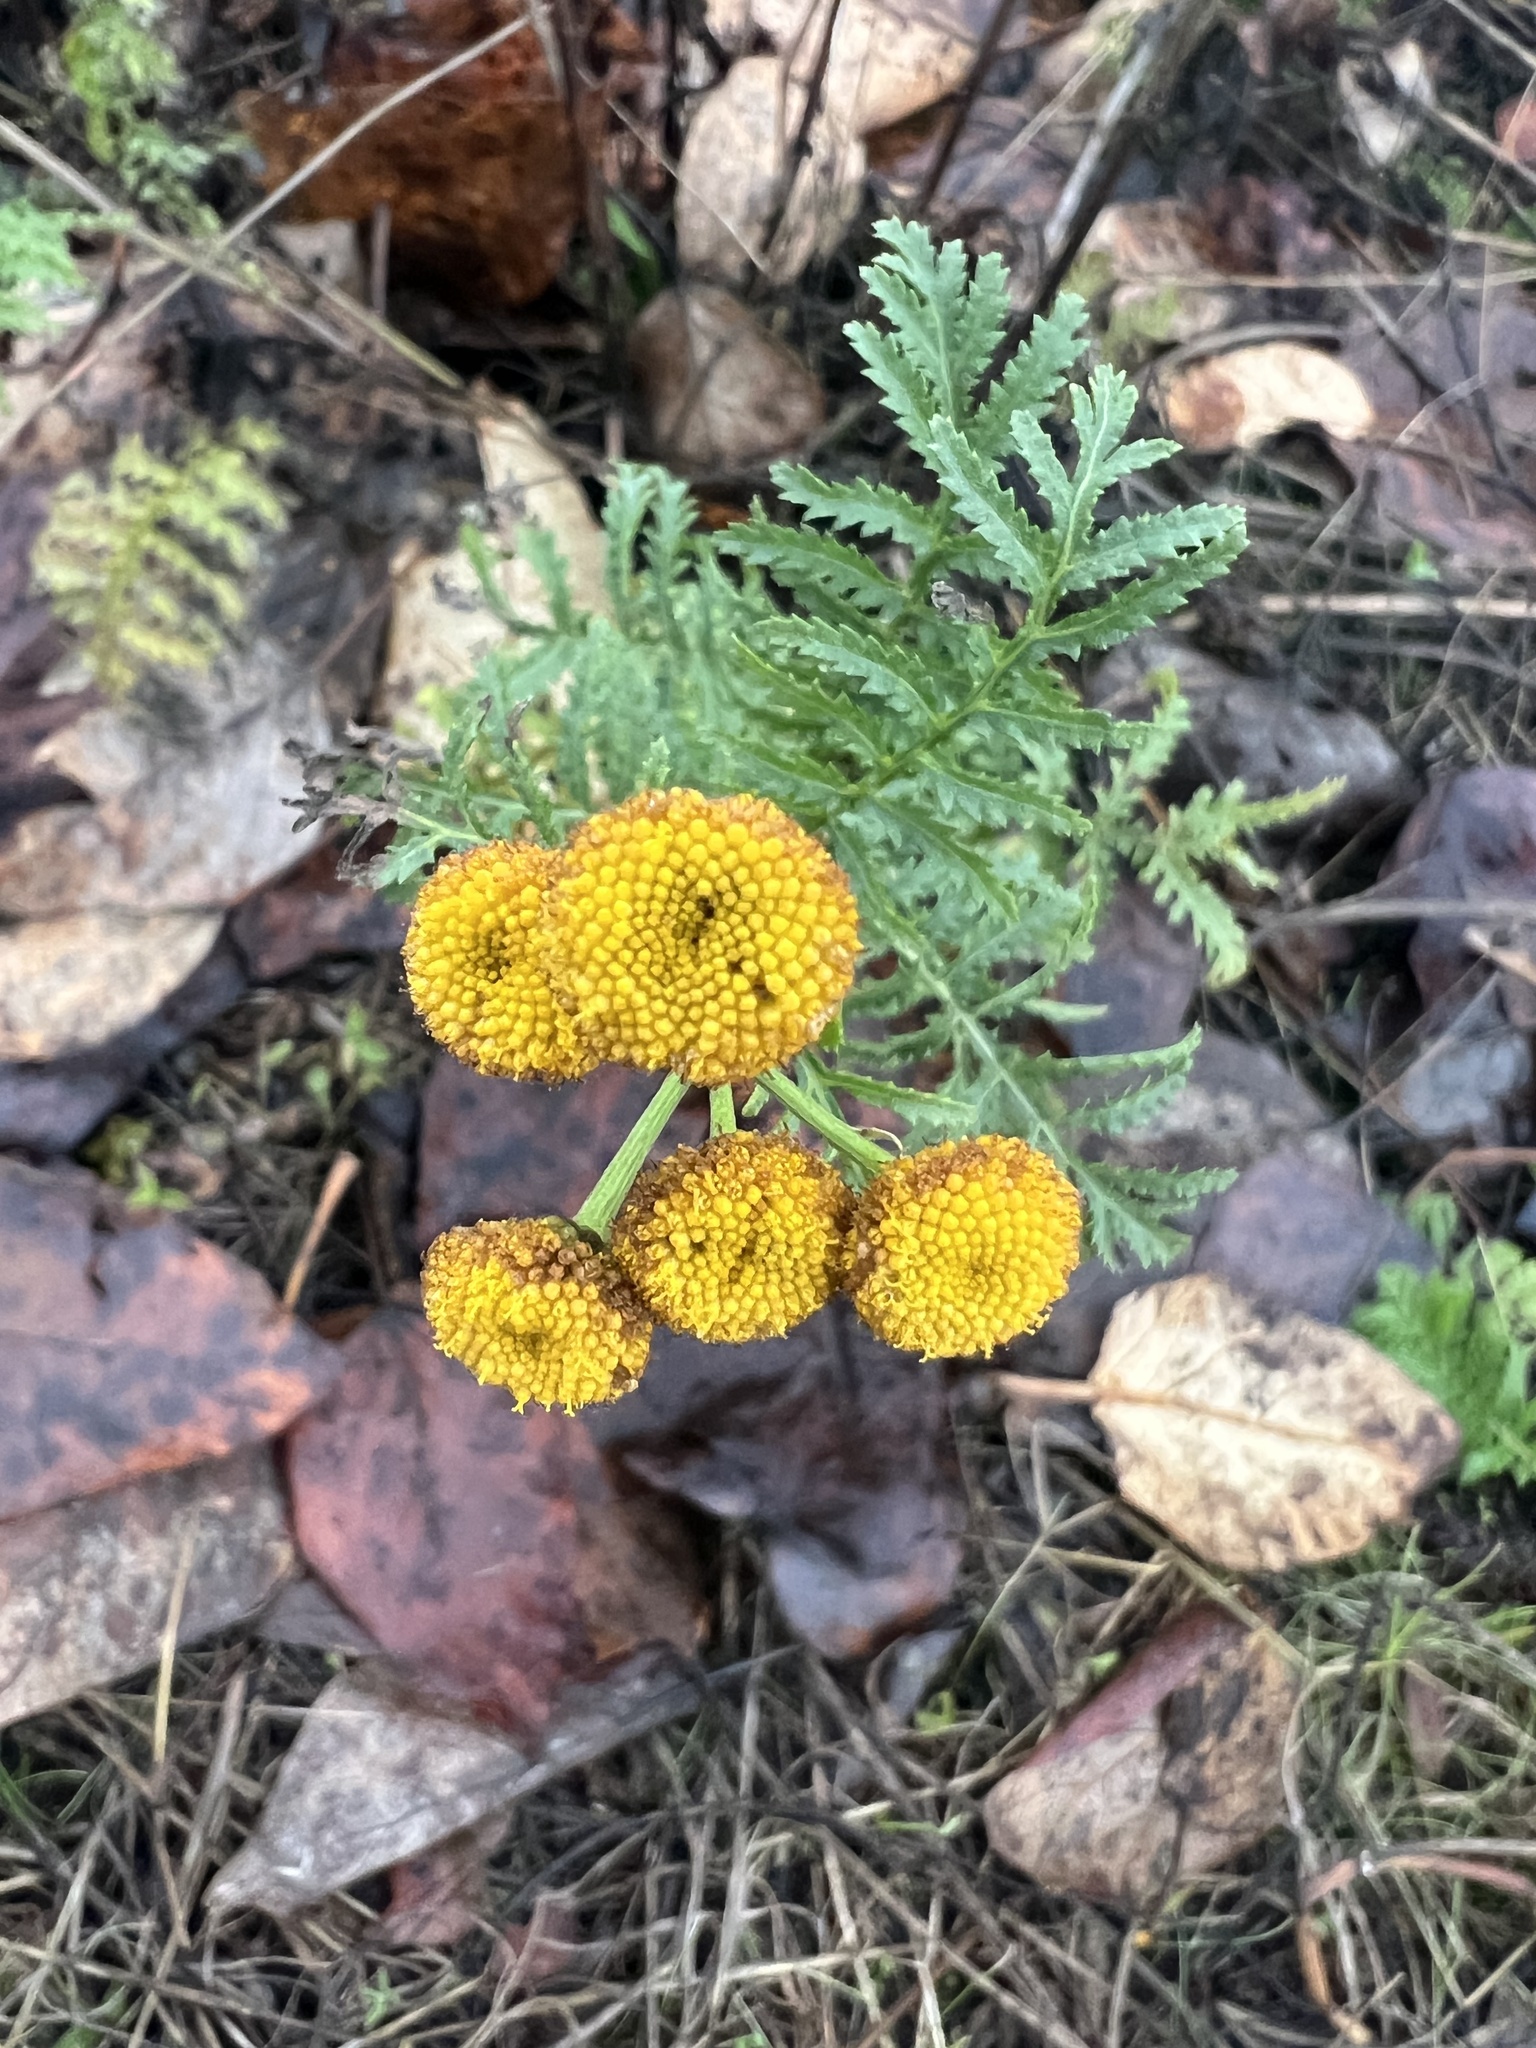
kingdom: Plantae
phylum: Tracheophyta
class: Magnoliopsida
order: Asterales
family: Asteraceae
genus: Tanacetum
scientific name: Tanacetum vulgare
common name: Common tansy
